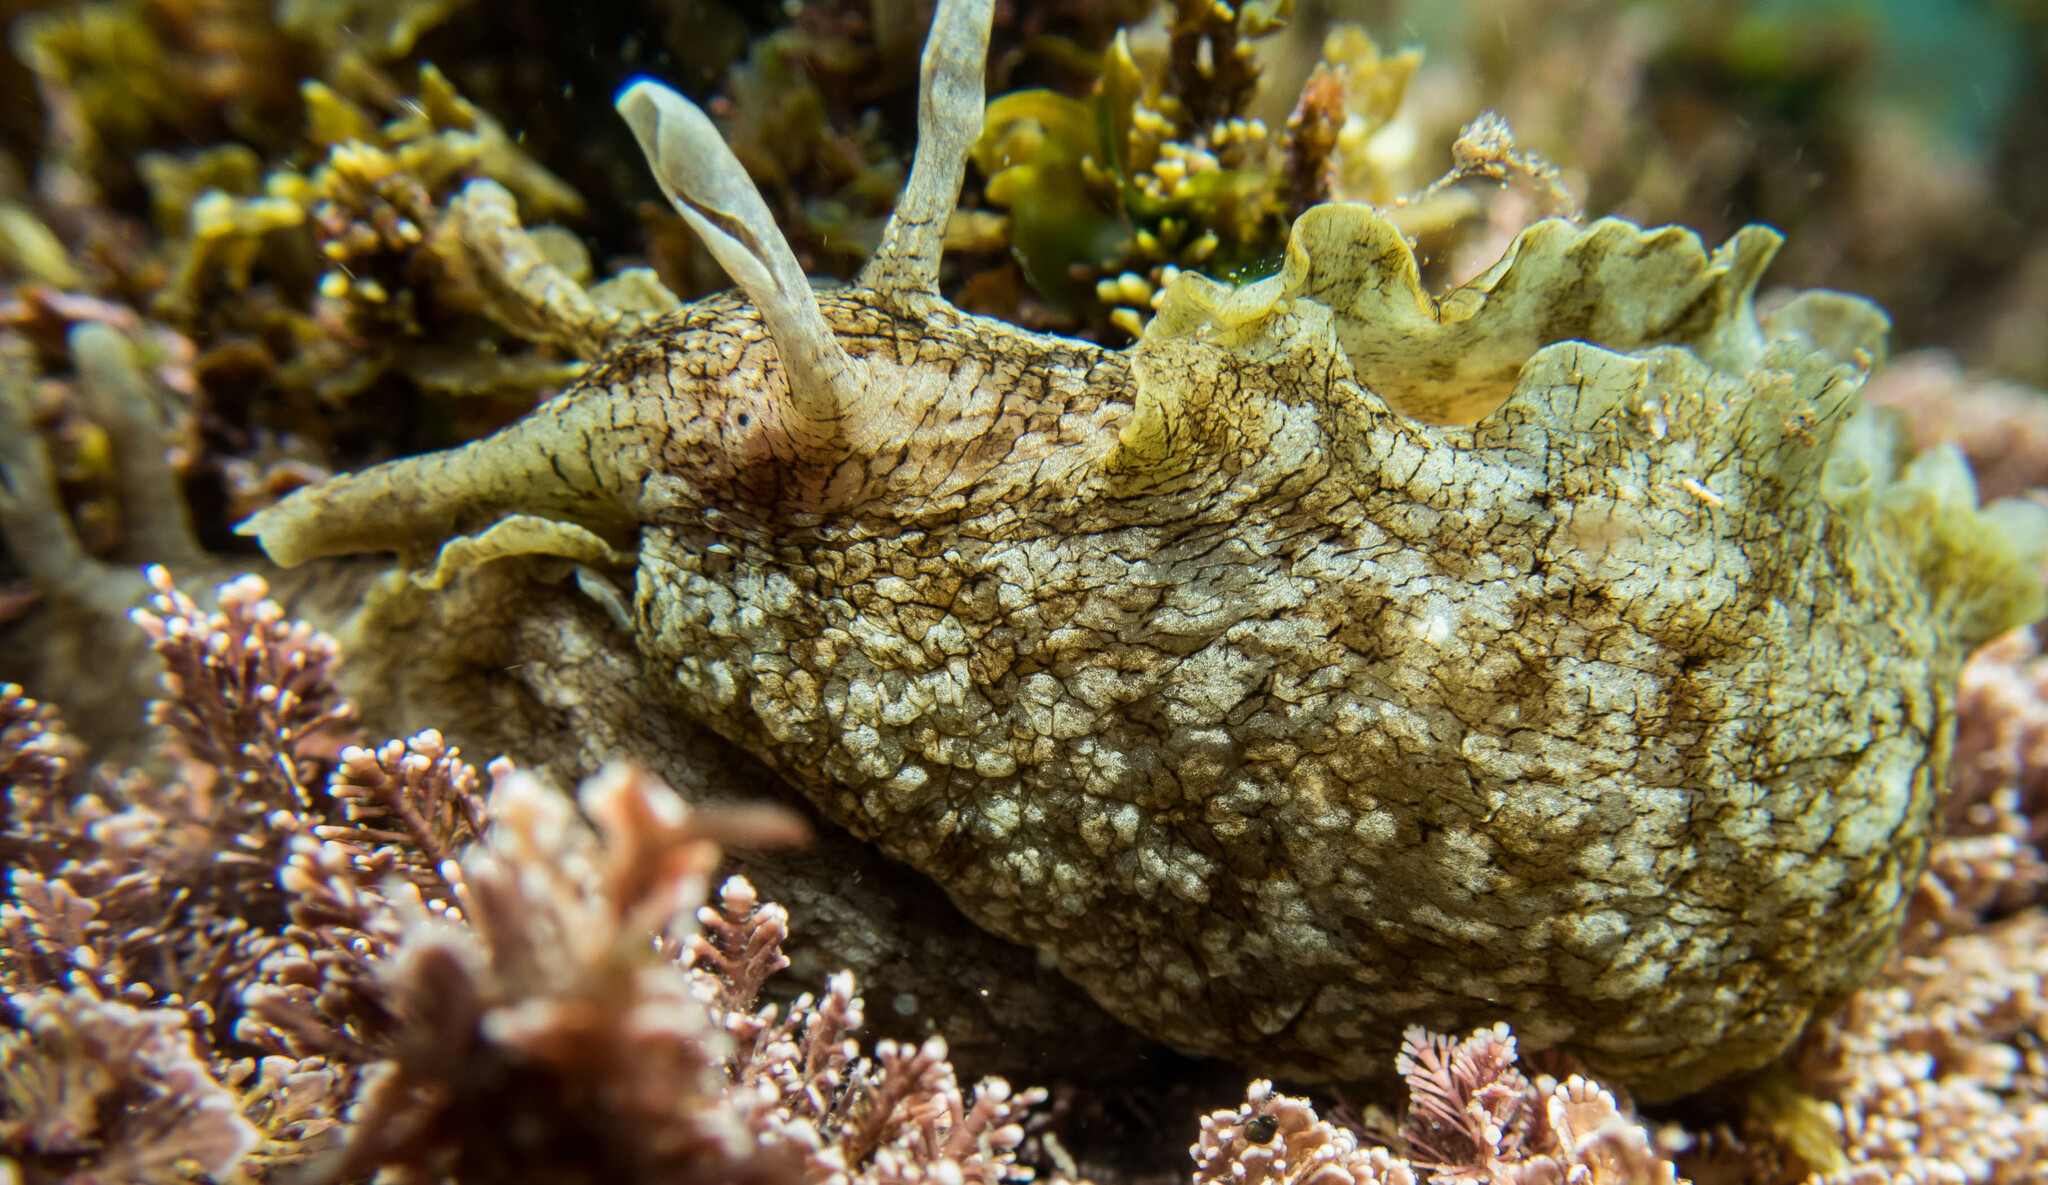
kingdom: Animalia
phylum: Mollusca
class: Gastropoda
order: Aplysiida
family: Aplysiidae
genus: Aplysia
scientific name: Aplysia sydneyensis
